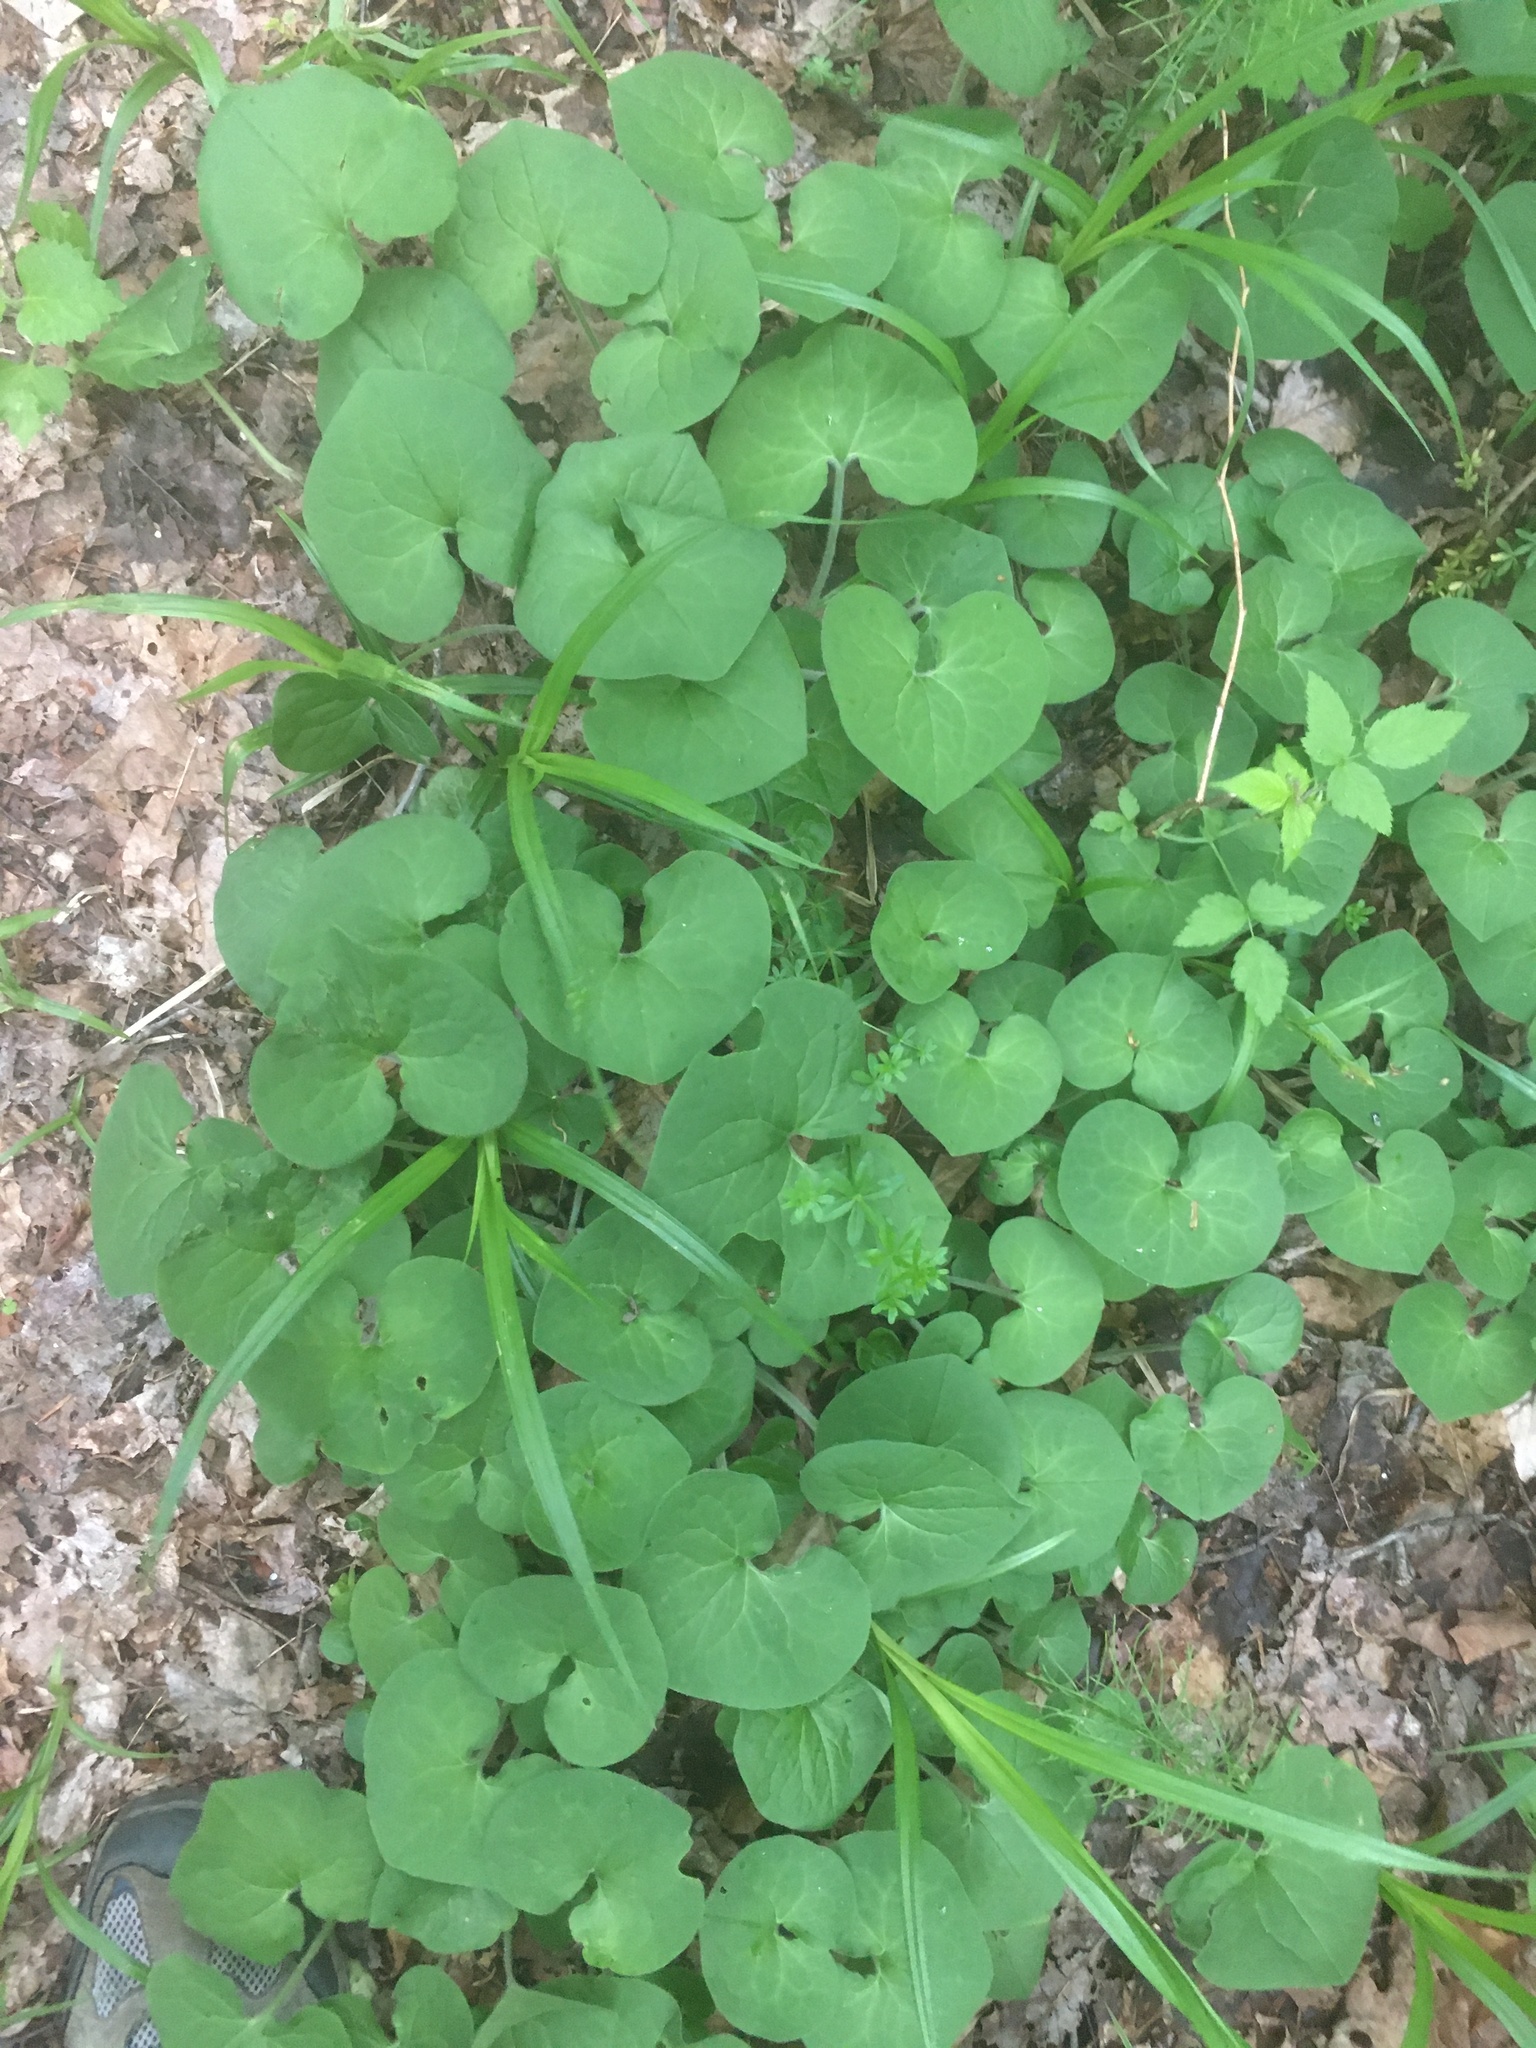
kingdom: Plantae
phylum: Tracheophyta
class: Magnoliopsida
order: Piperales
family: Aristolochiaceae
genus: Asarum
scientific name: Asarum canadense
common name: Wild ginger
